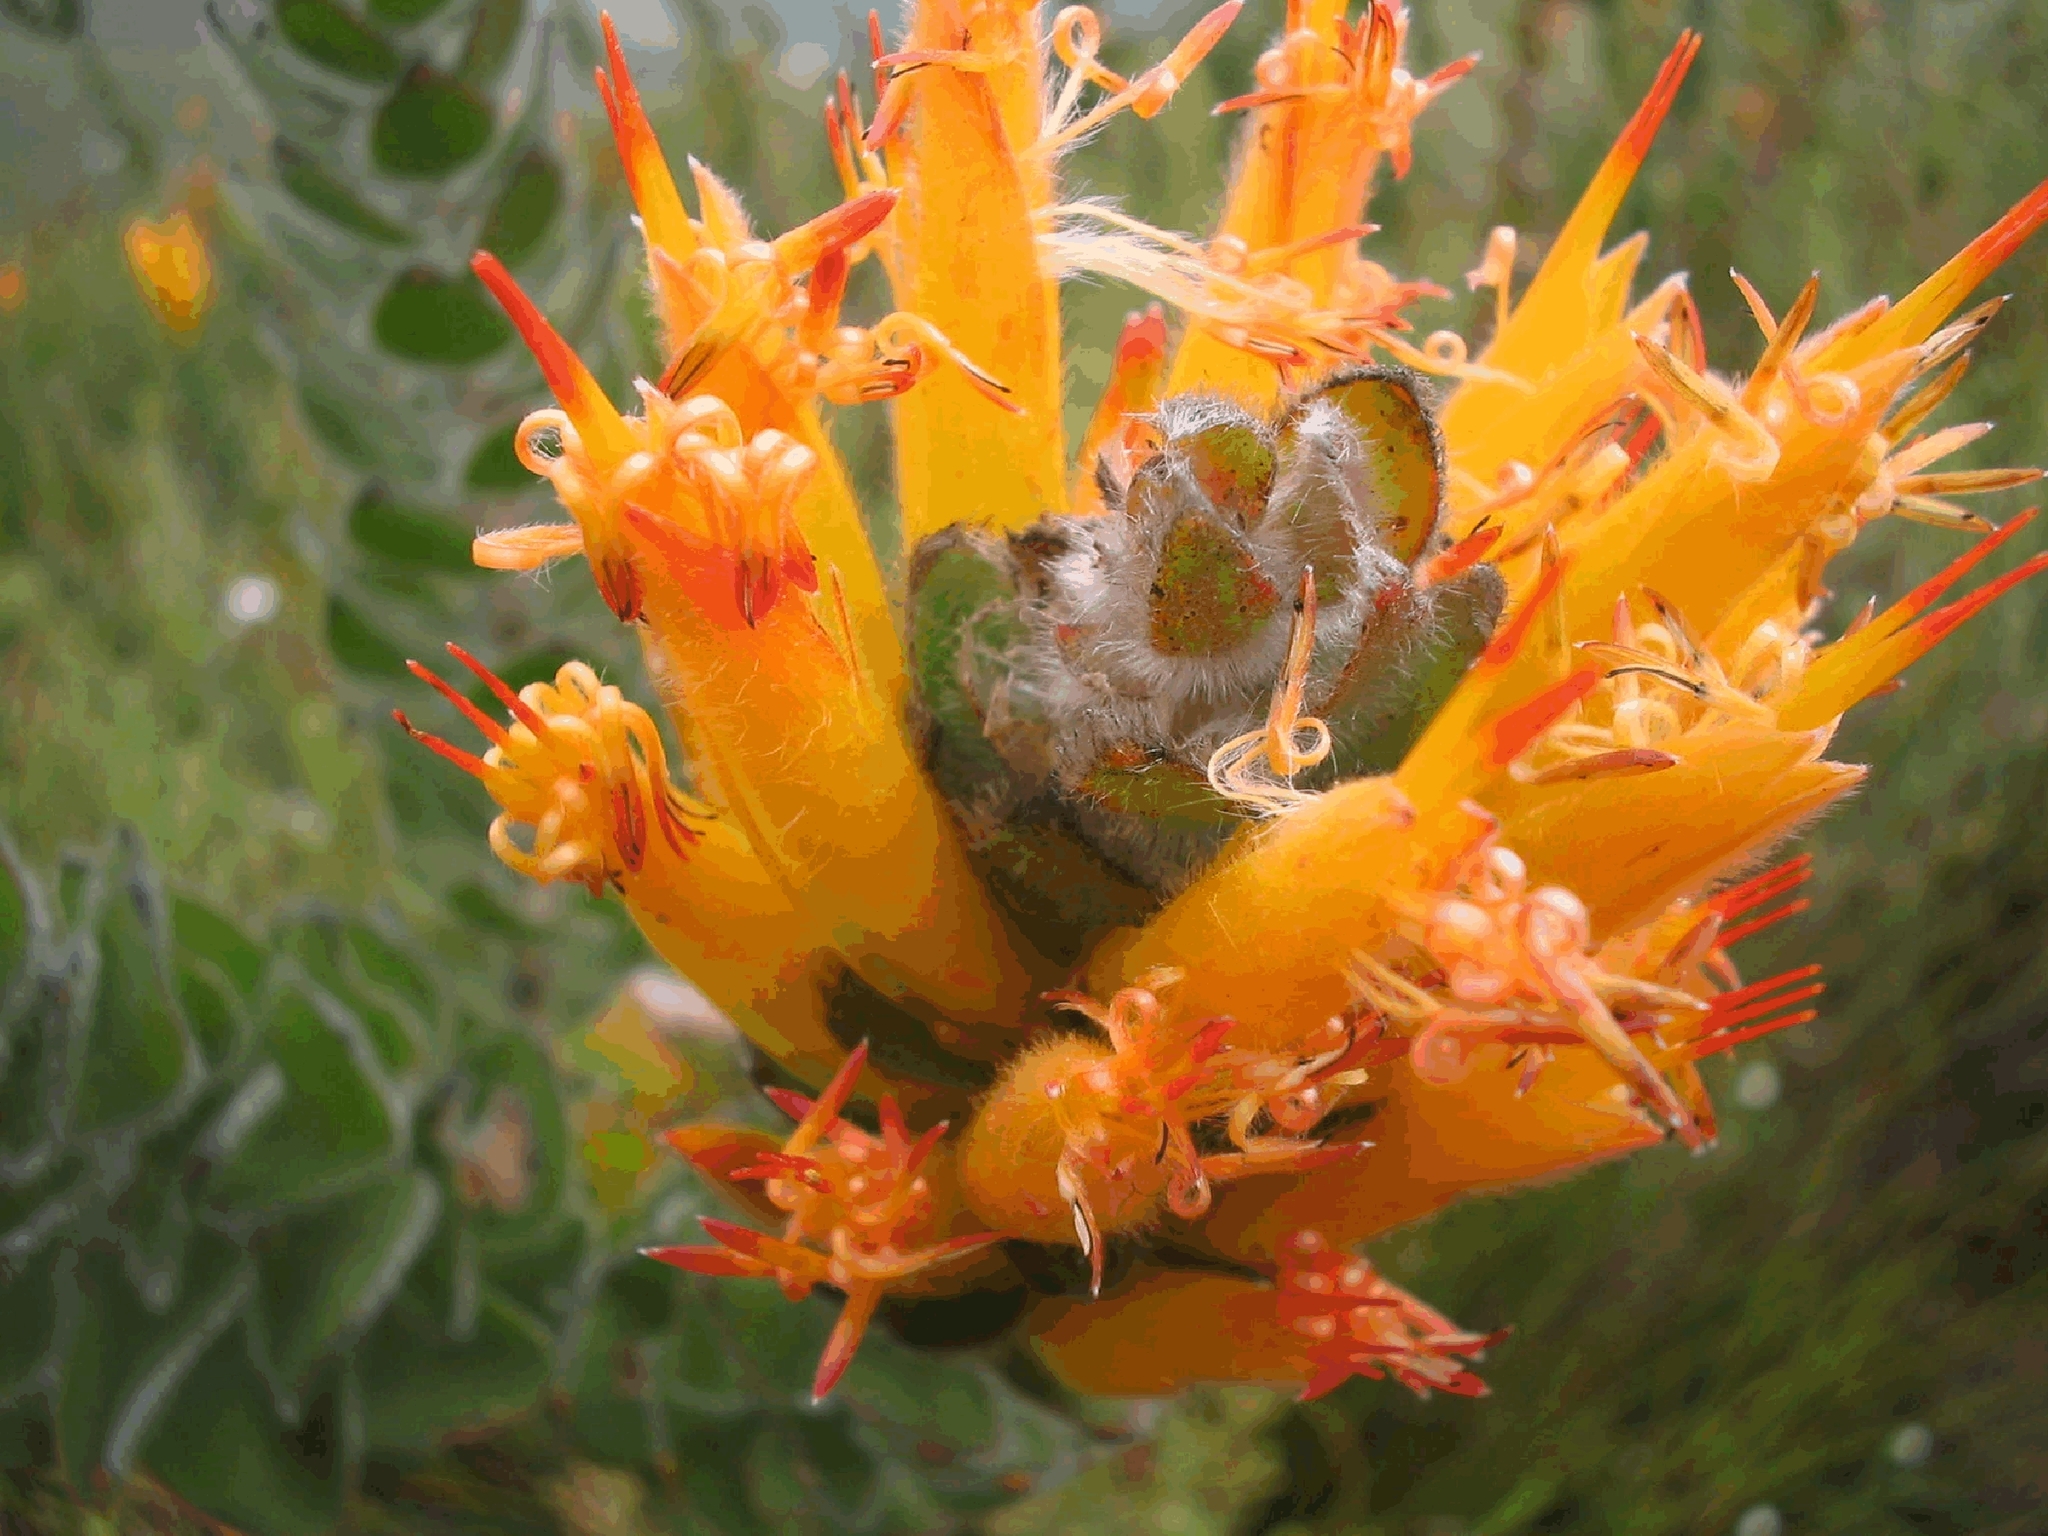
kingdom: Plantae
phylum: Tracheophyta
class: Magnoliopsida
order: Proteales
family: Proteaceae
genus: Mimetes
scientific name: Mimetes pauciflora
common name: Three-flowered pagoda
